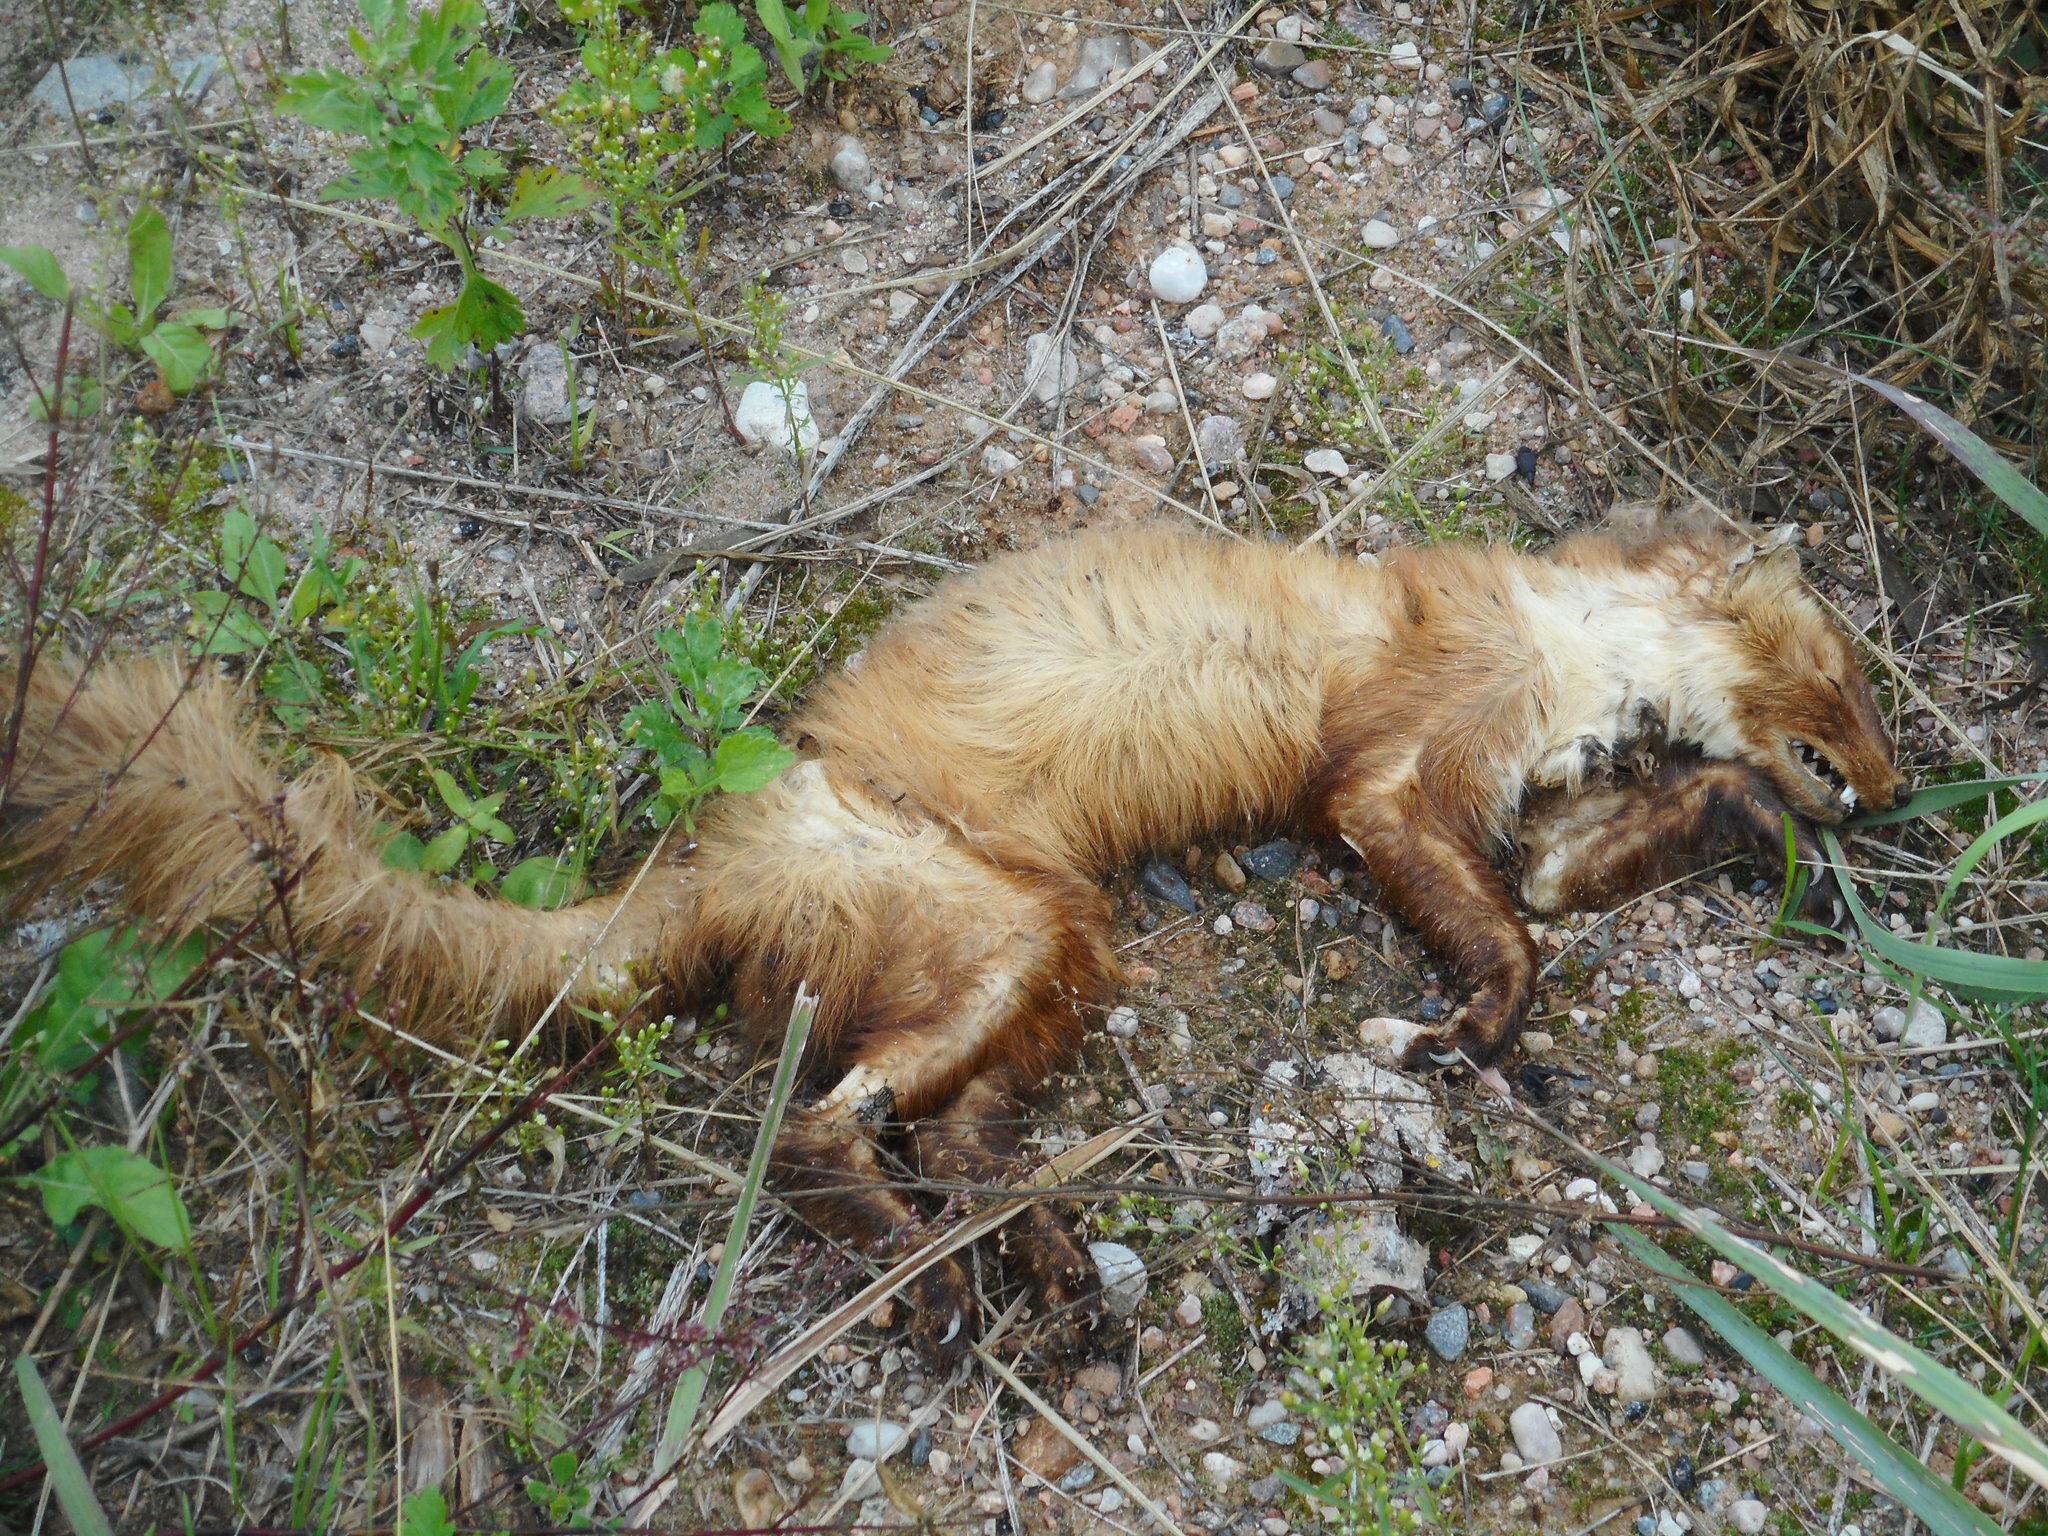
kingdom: Animalia
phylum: Chordata
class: Mammalia
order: Carnivora
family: Mustelidae
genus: Martes
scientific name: Martes martes
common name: European pine marten
